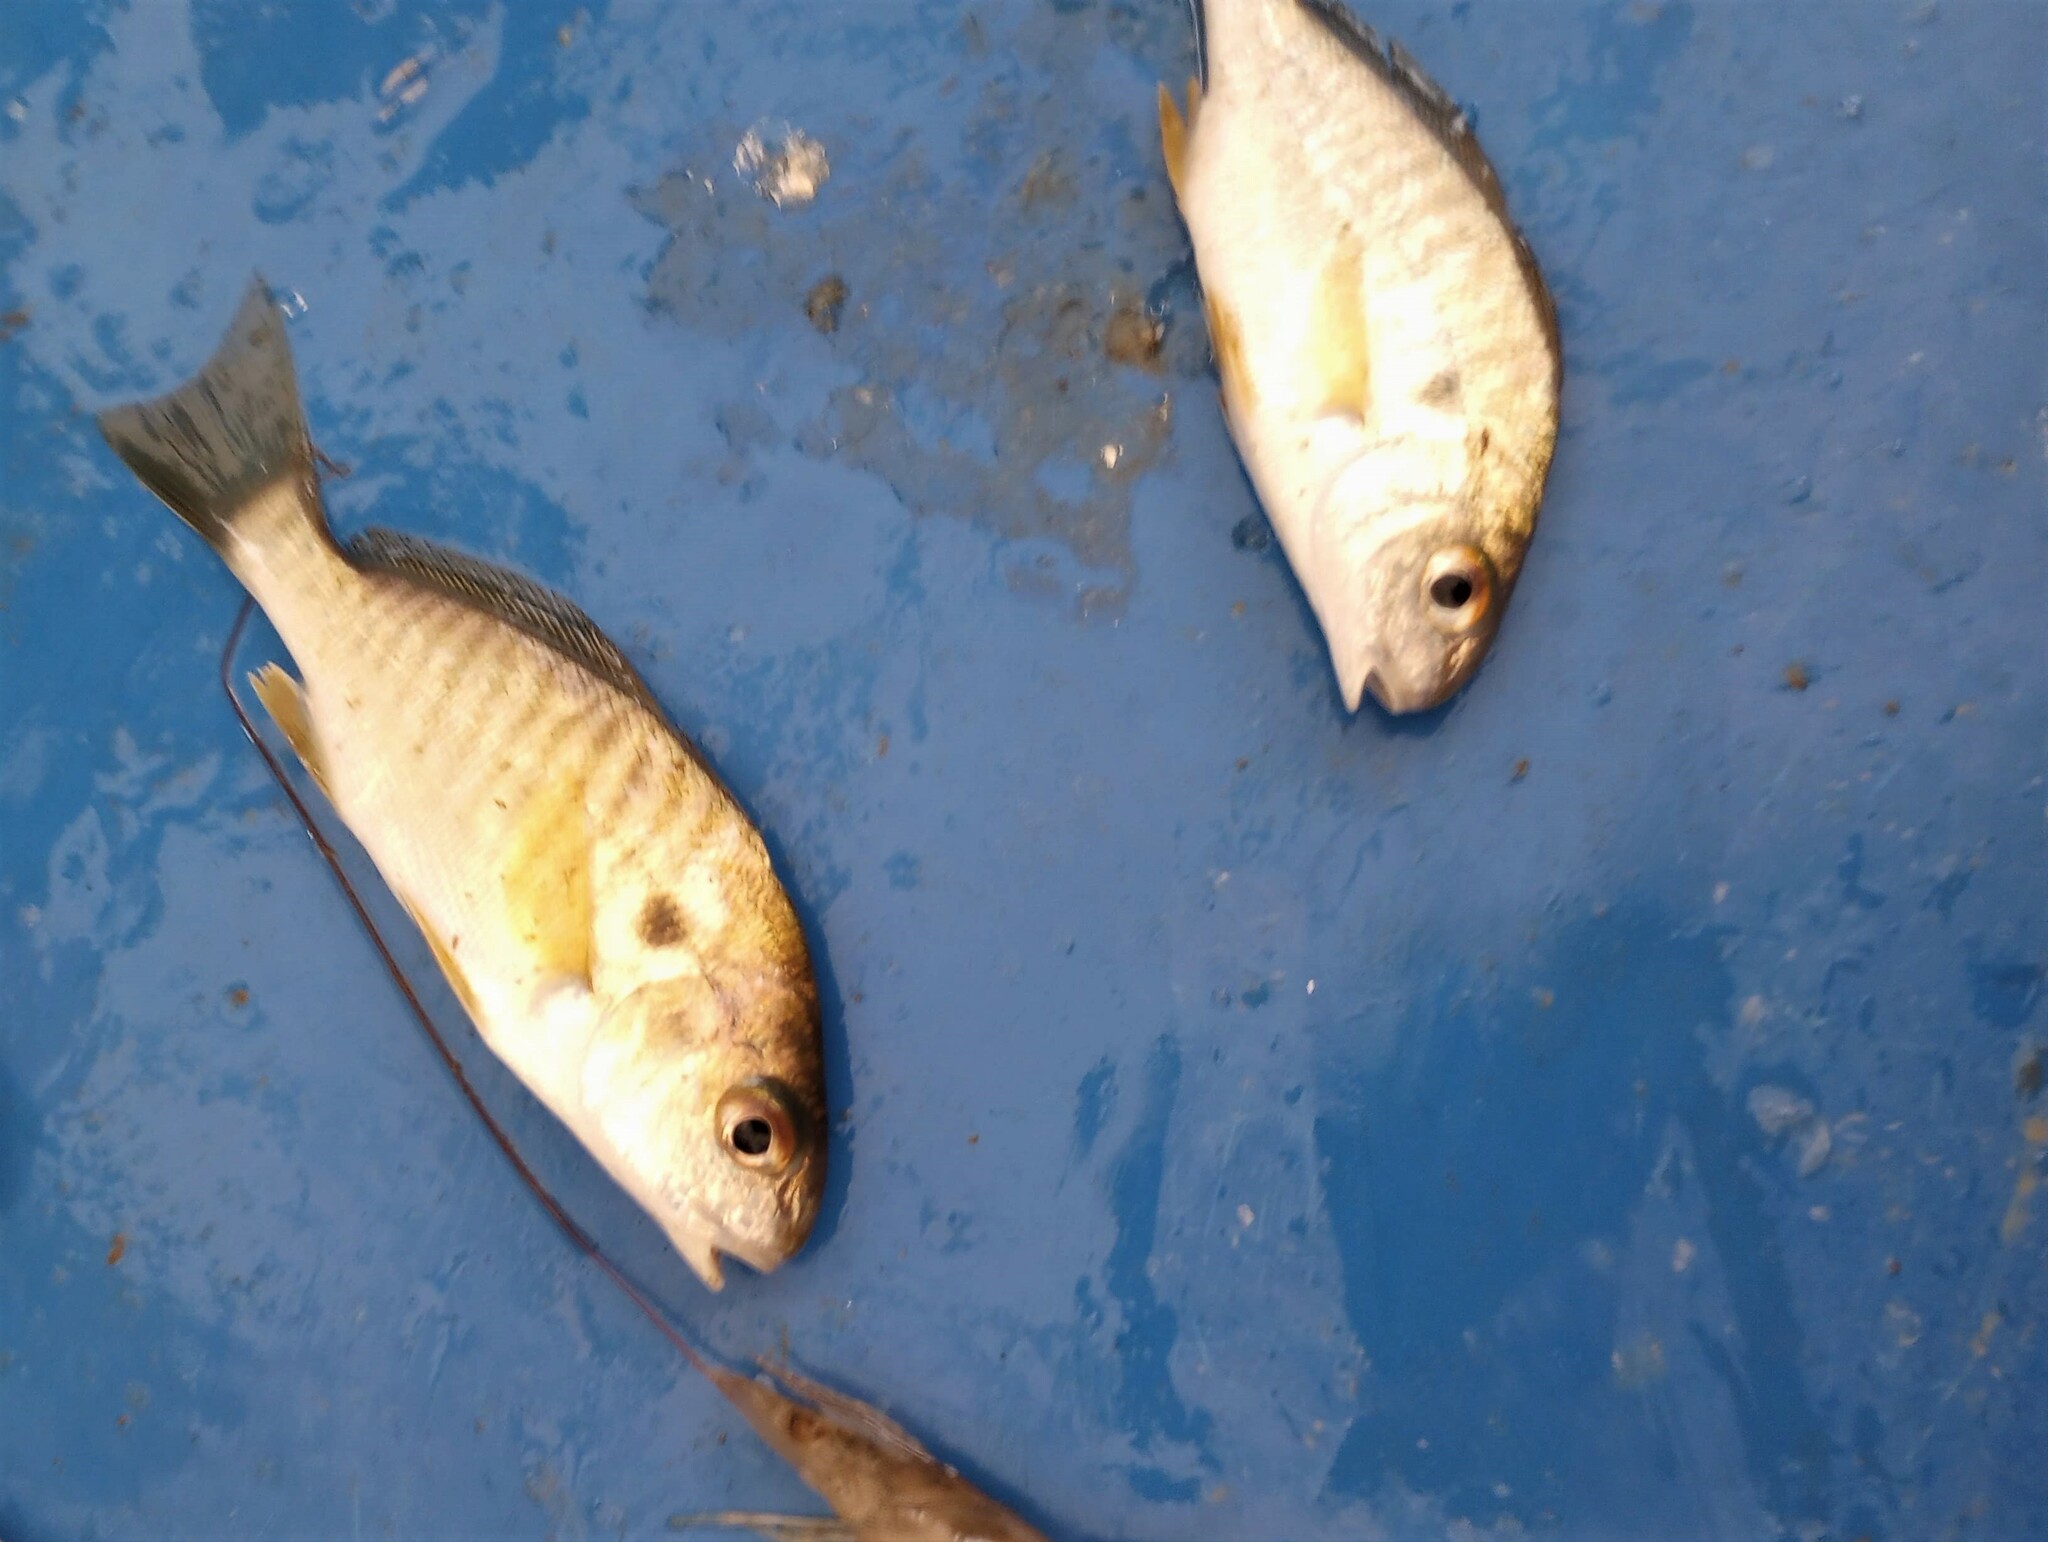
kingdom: Animalia
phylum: Chordata
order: Perciformes
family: Sciaenidae
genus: Leiostomus
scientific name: Leiostomus xanthurus
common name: Spot
